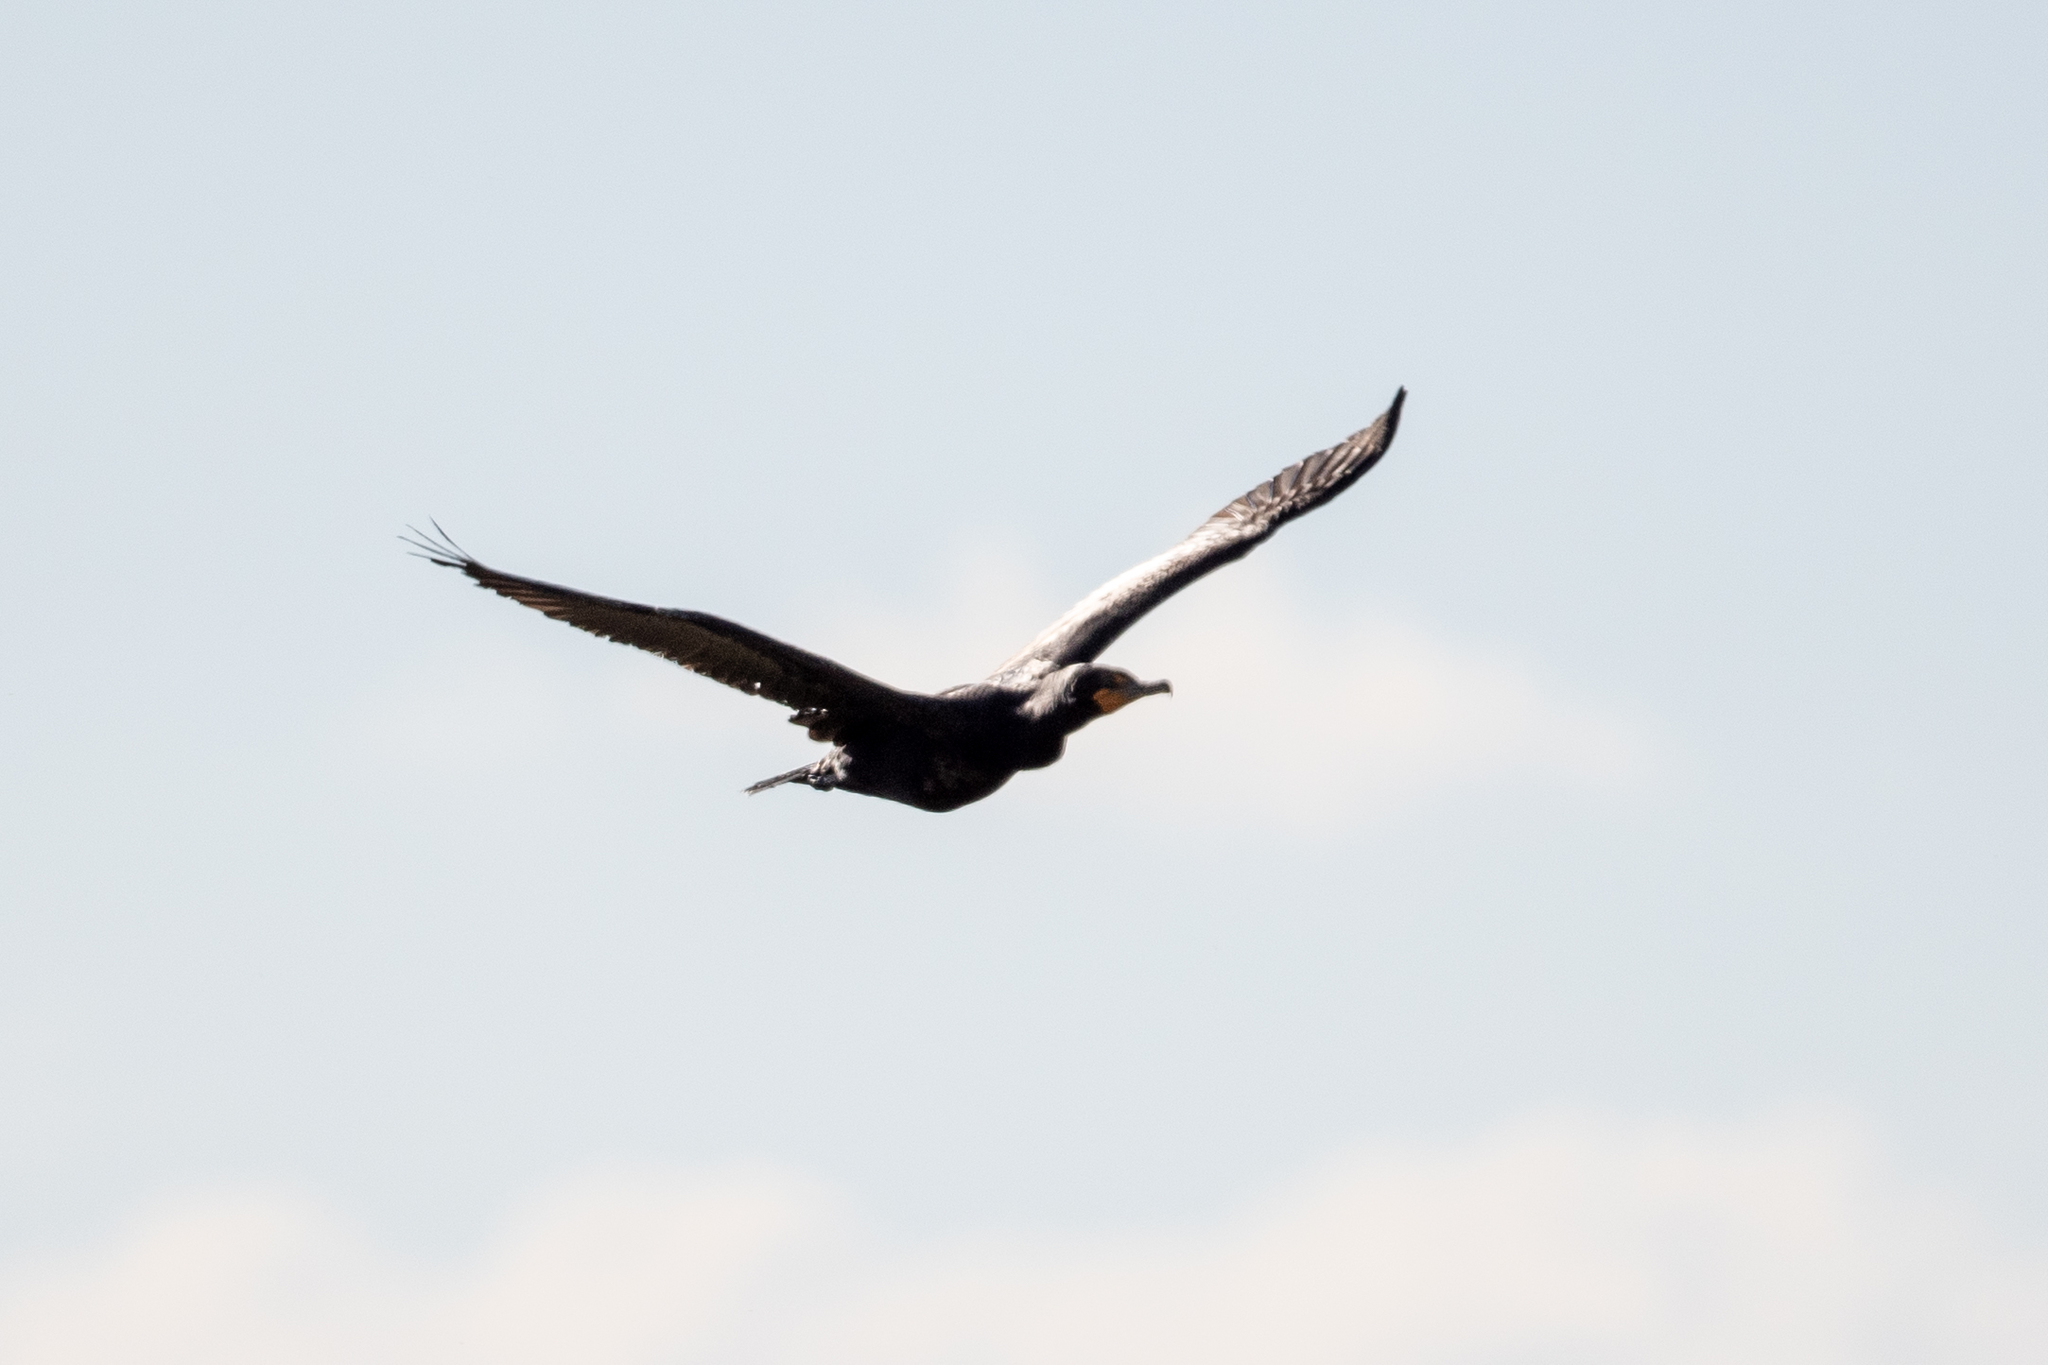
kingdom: Animalia
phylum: Chordata
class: Aves
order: Suliformes
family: Phalacrocoracidae
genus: Phalacrocorax
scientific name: Phalacrocorax auritus
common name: Double-crested cormorant
